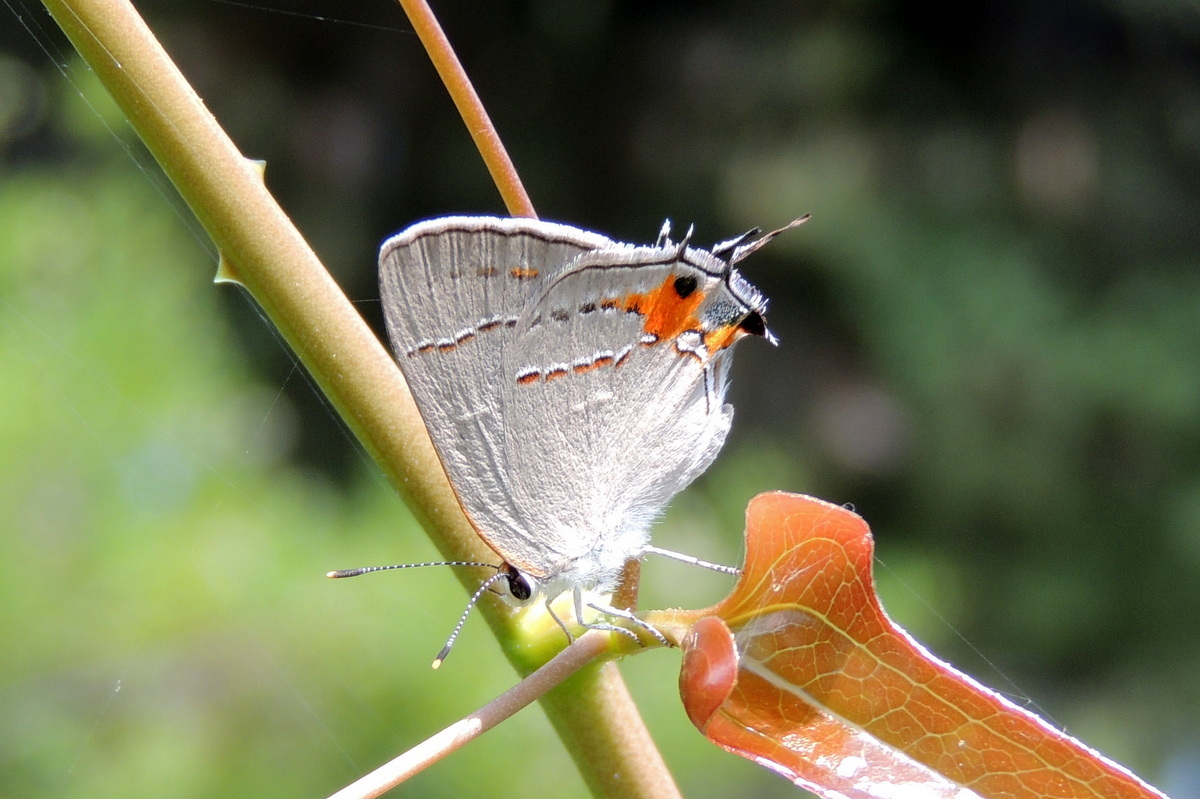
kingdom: Animalia
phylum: Arthropoda
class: Insecta
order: Lepidoptera
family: Lycaenidae
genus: Strymon
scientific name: Strymon melinus
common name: Gray hairstreak
